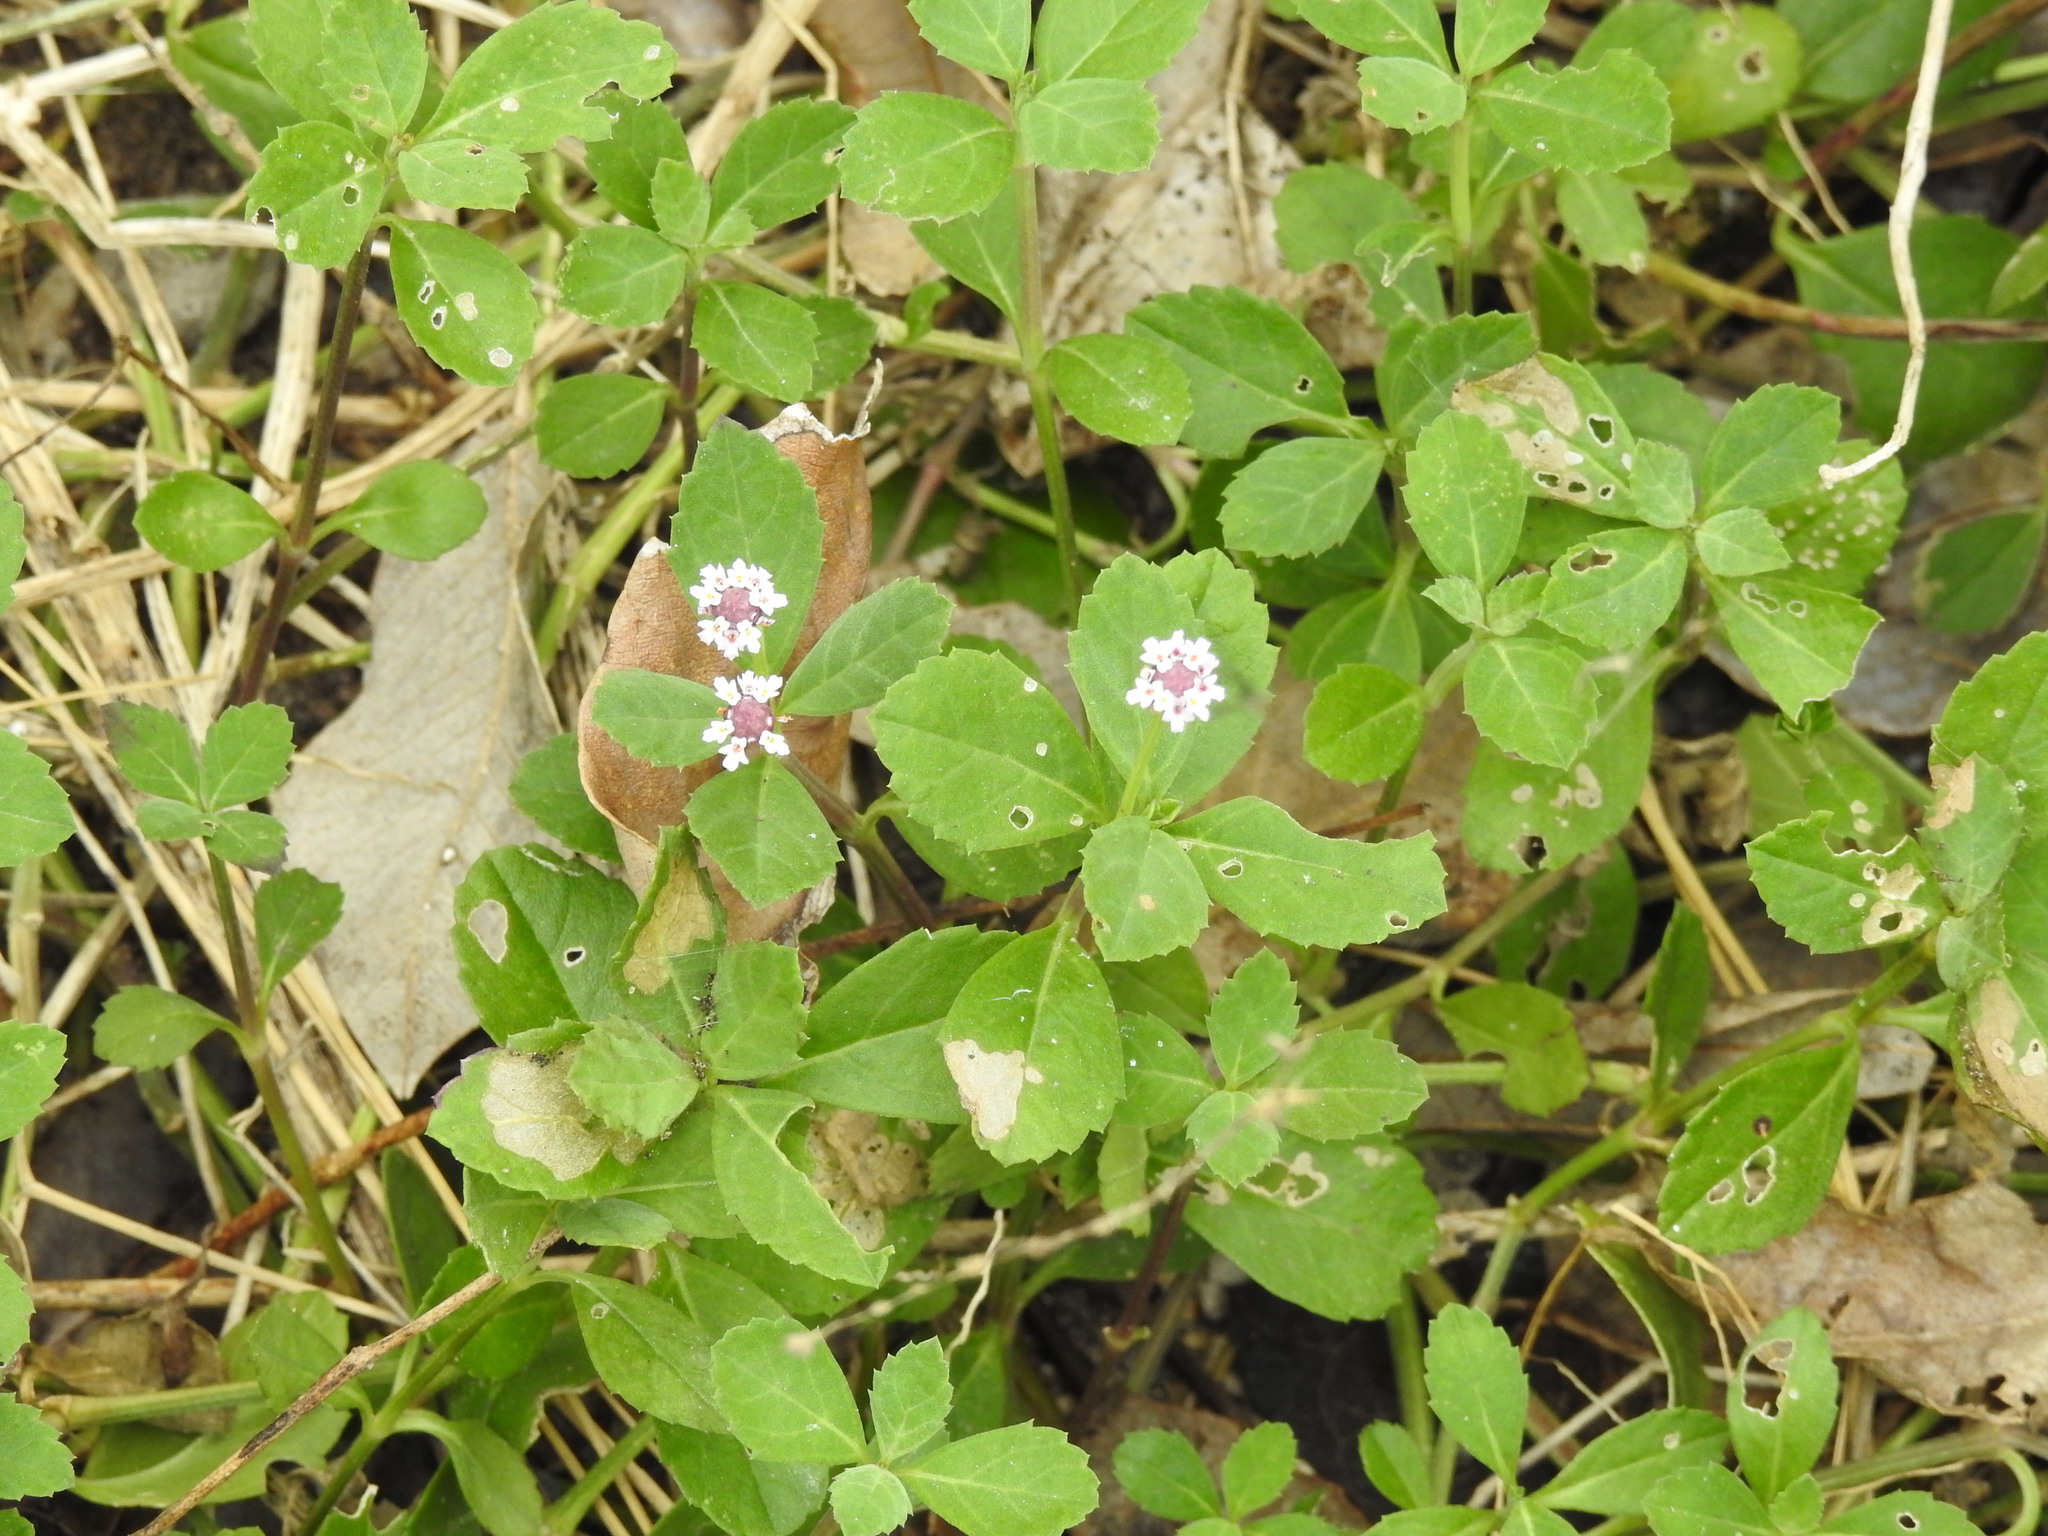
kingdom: Plantae
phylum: Tracheophyta
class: Magnoliopsida
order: Lamiales
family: Verbenaceae
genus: Phyla
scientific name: Phyla nodiflora
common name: Frogfruit
